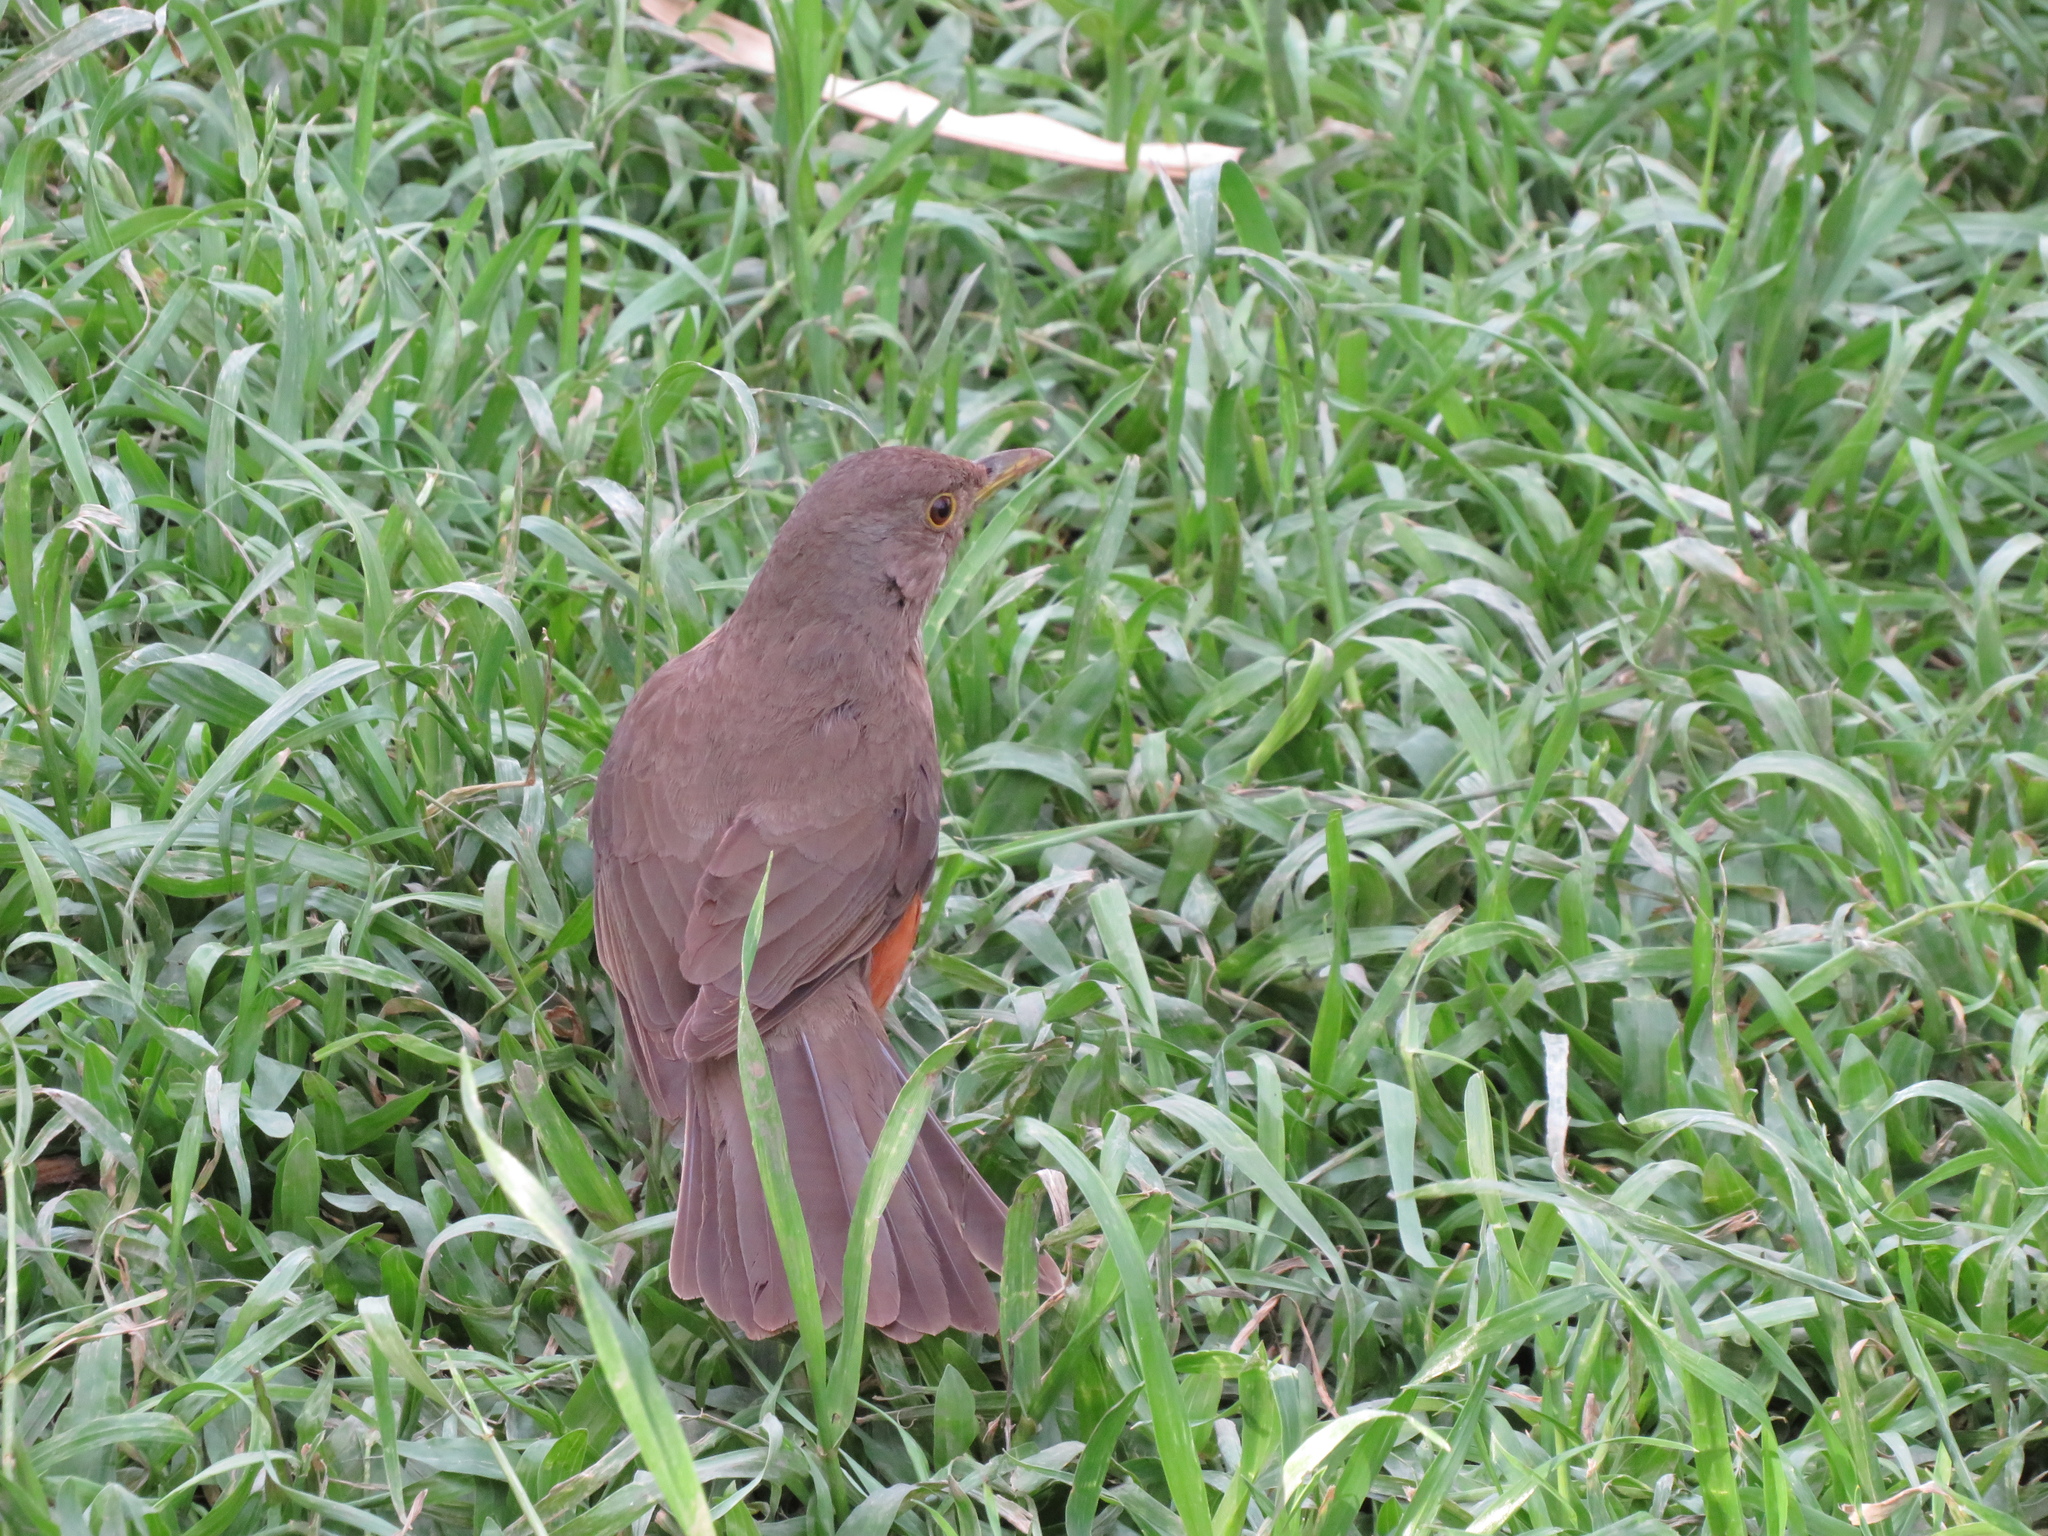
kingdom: Animalia
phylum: Chordata
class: Aves
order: Passeriformes
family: Turdidae
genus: Turdus
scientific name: Turdus rufiventris
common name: Rufous-bellied thrush
